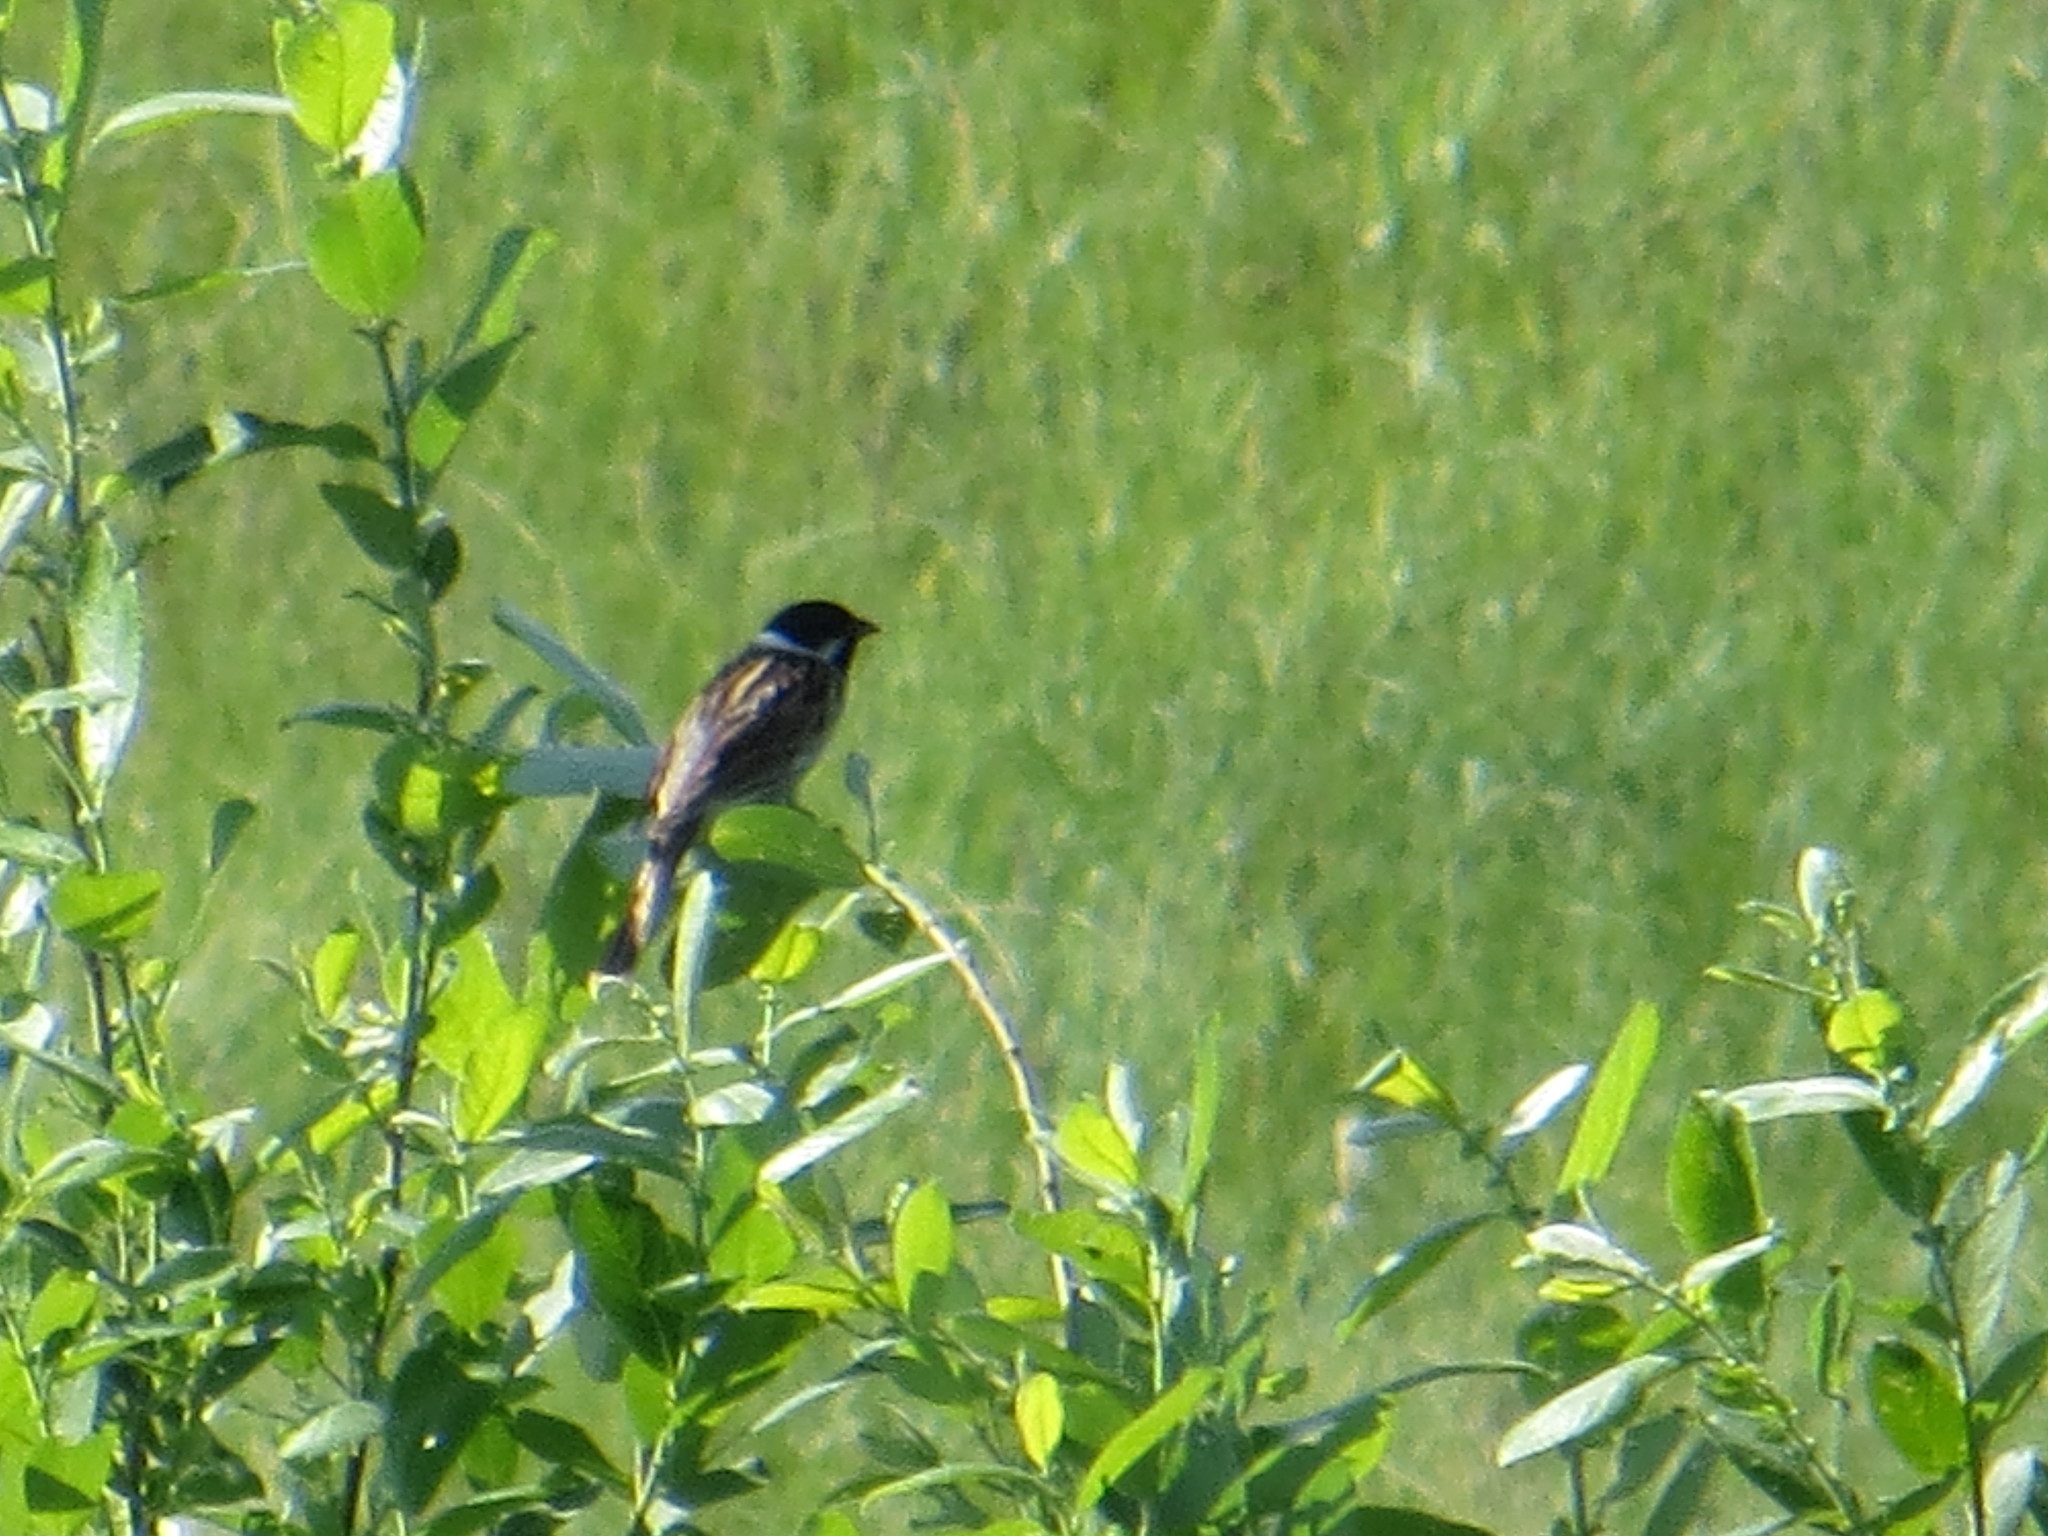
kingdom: Animalia
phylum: Chordata
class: Aves
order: Passeriformes
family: Emberizidae
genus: Emberiza
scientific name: Emberiza schoeniclus
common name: Reed bunting
